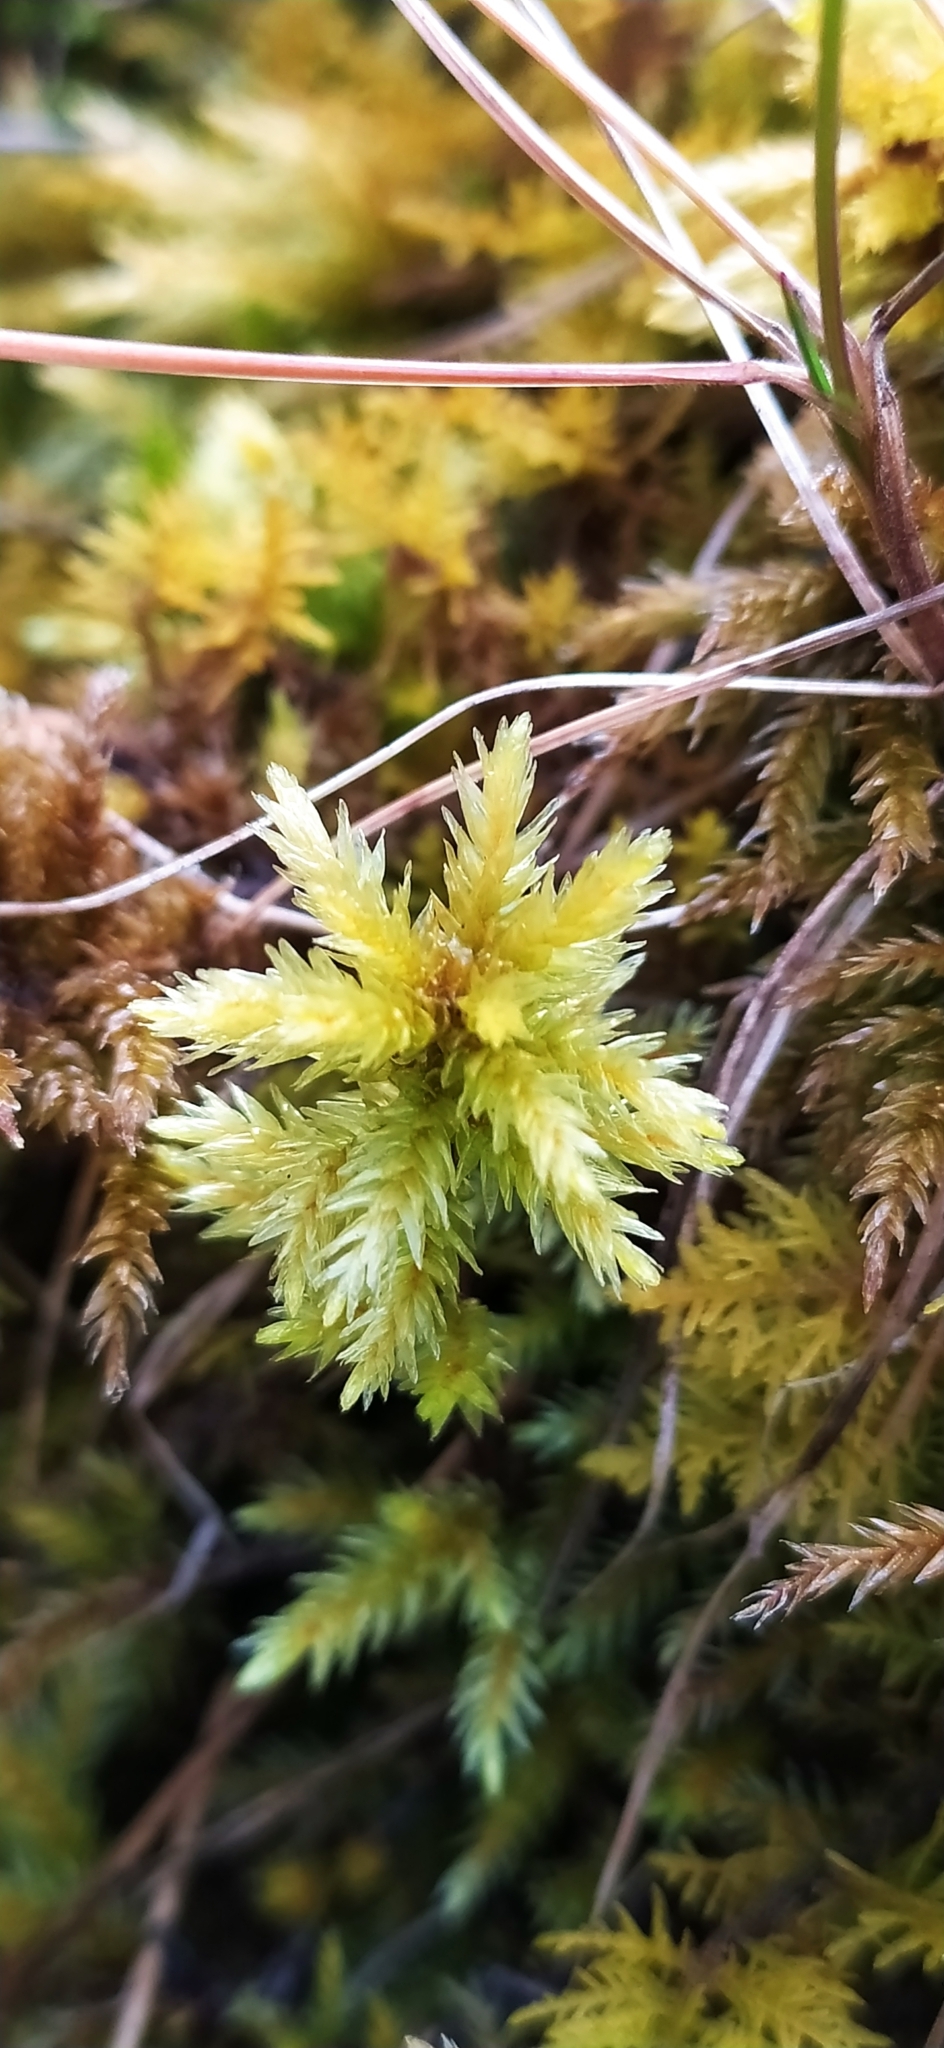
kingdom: Plantae
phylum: Bryophyta
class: Bryopsida
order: Hypnales
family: Climaciaceae
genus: Climacium
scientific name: Climacium dendroides
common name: Northern tree moss
